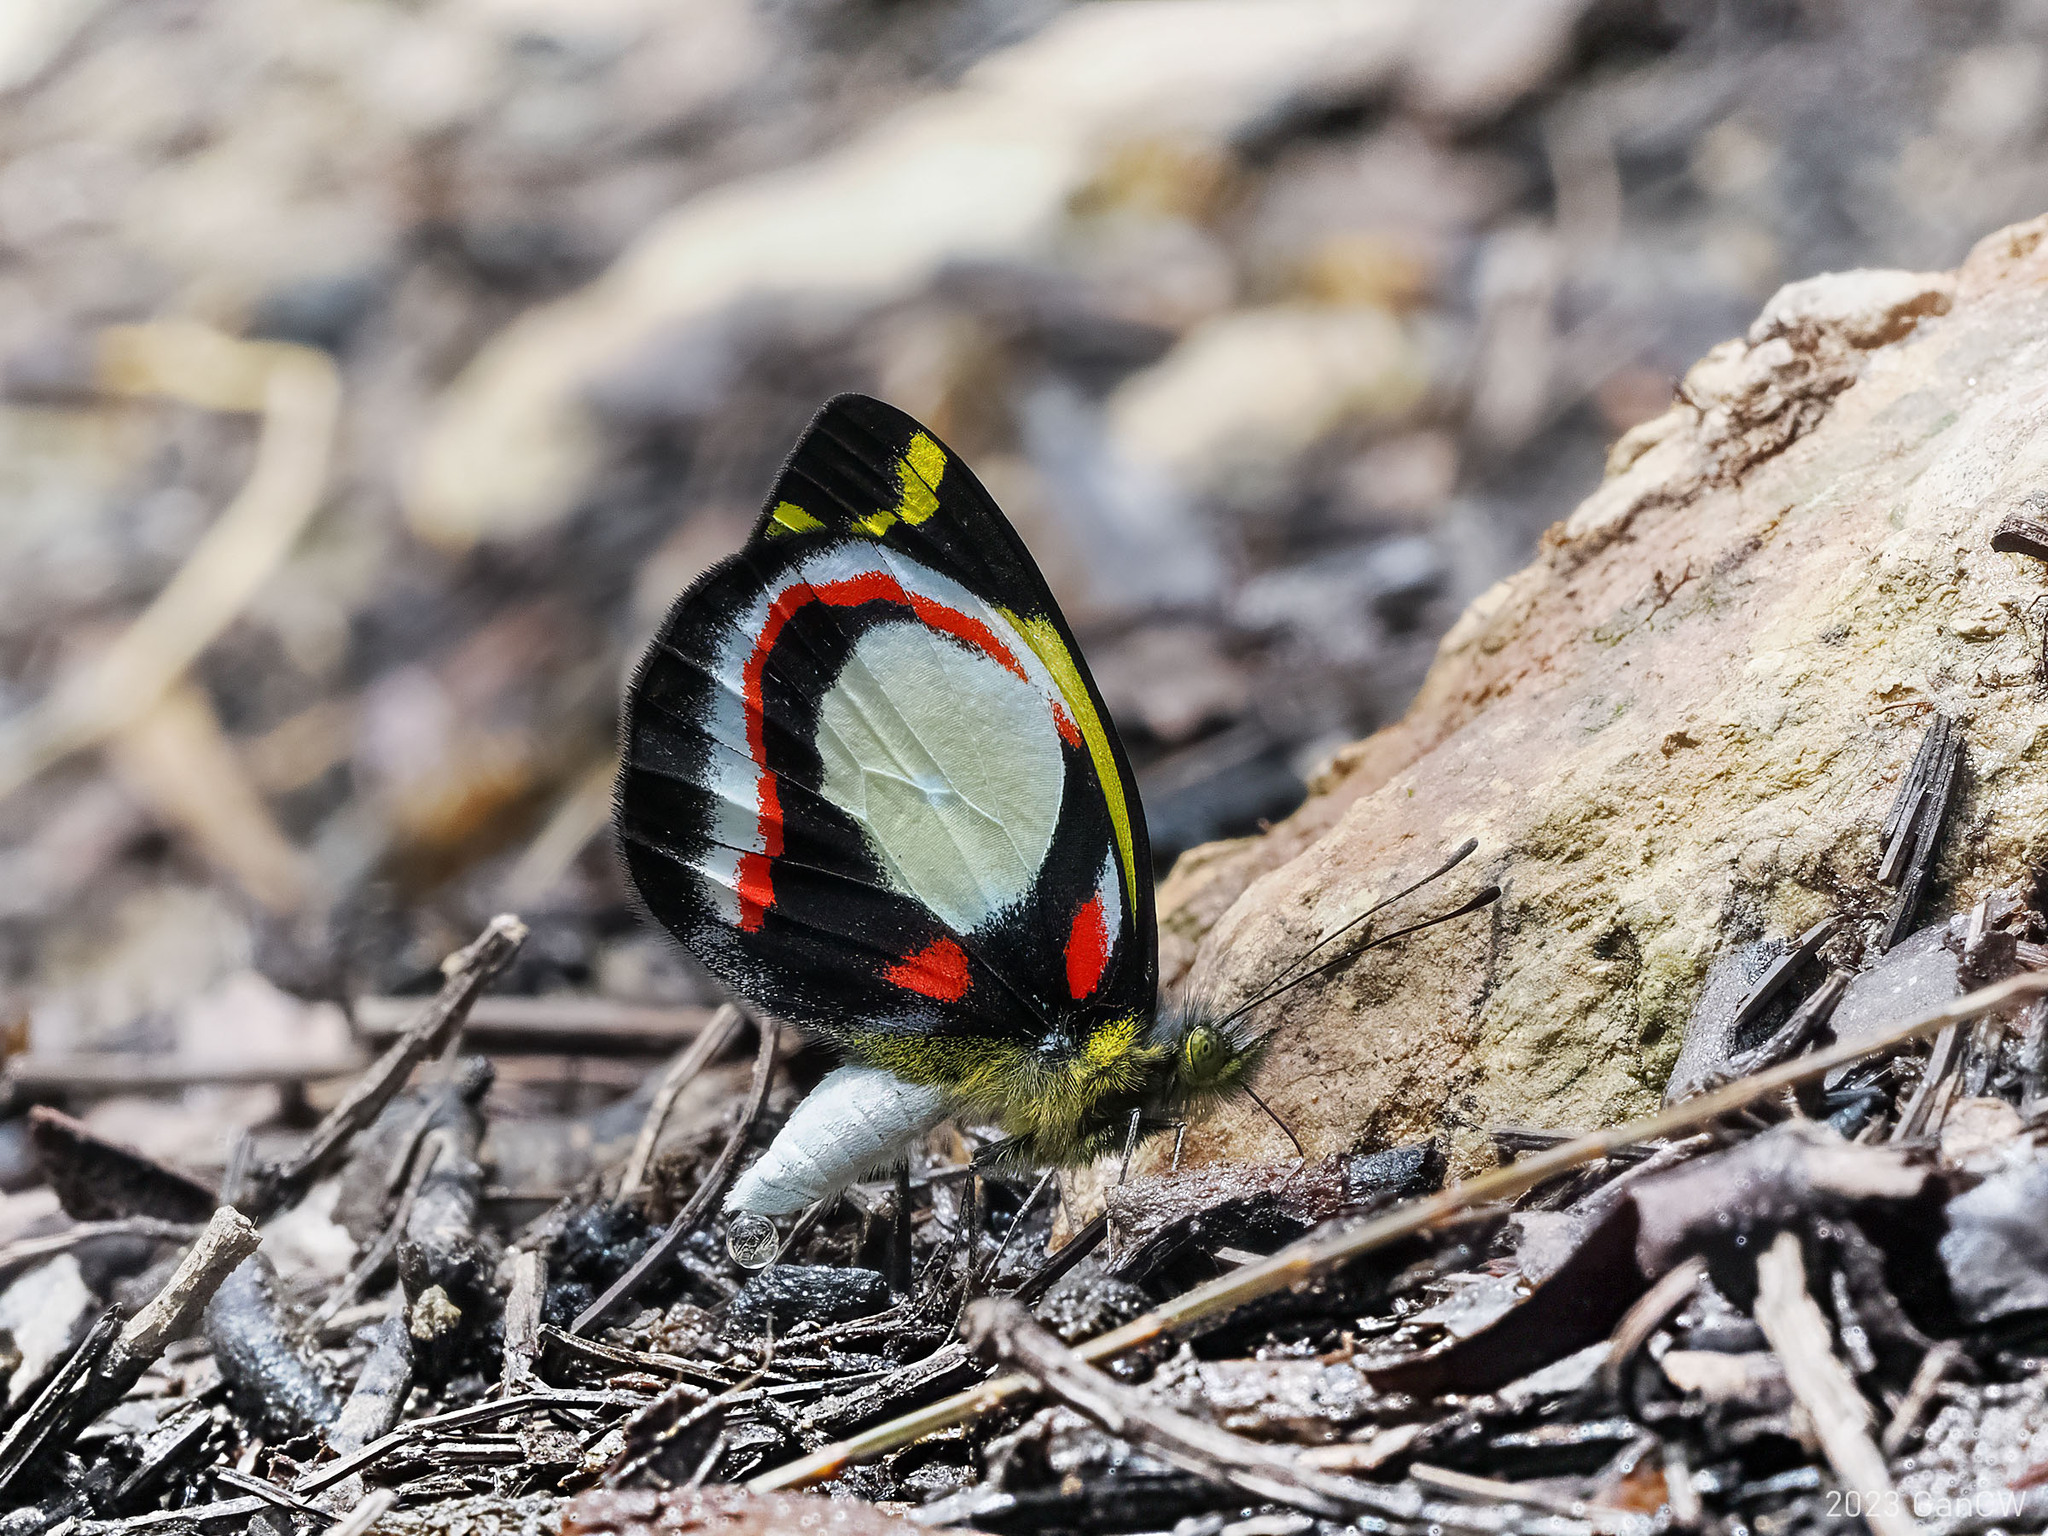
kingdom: Animalia
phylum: Arthropoda
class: Insecta
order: Lepidoptera
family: Pieridae
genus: Delias
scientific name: Delias leucias
